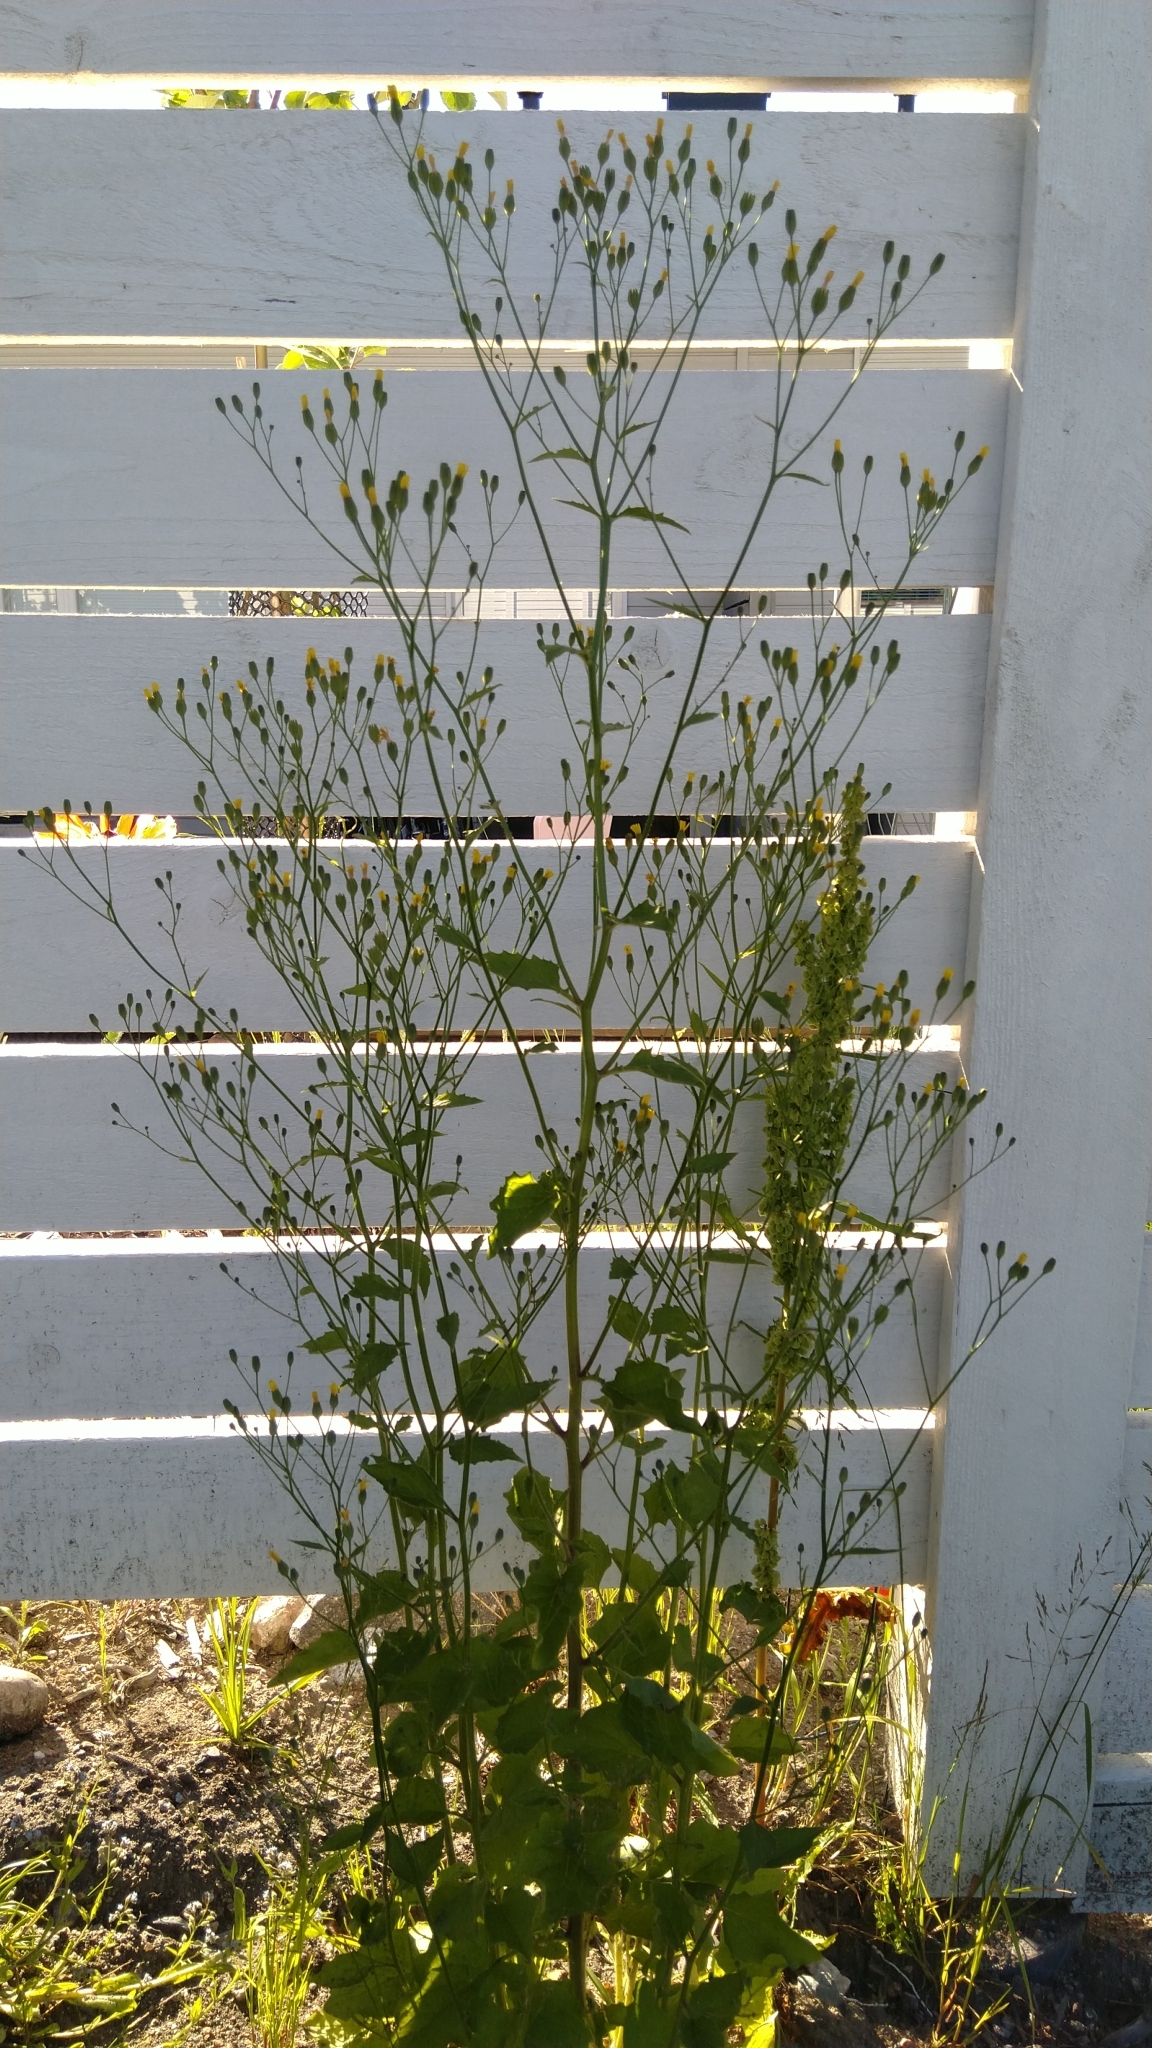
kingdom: Plantae
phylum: Tracheophyta
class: Magnoliopsida
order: Asterales
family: Asteraceae
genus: Lapsana
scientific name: Lapsana communis
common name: Nipplewort
